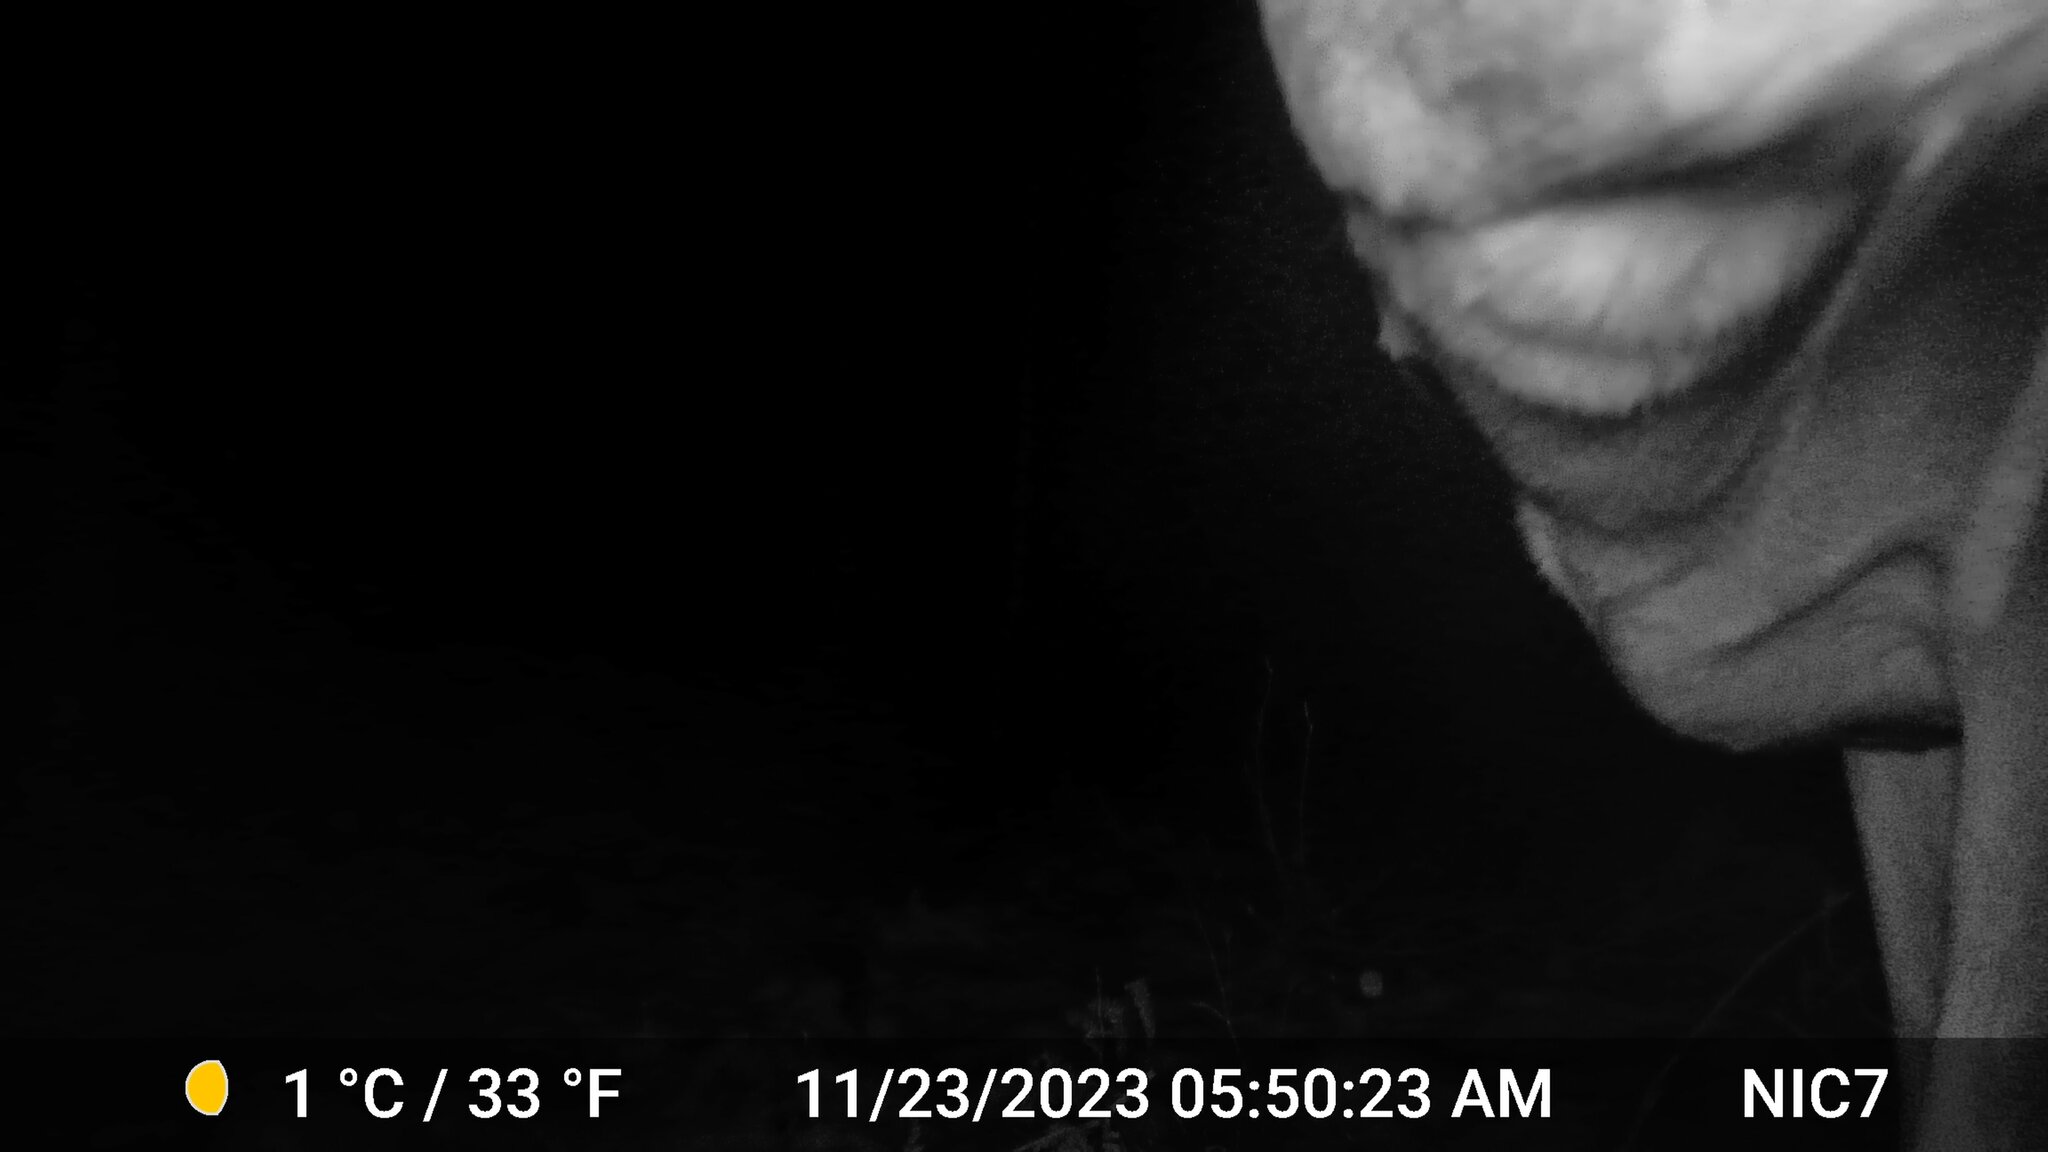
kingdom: Animalia
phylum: Chordata
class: Mammalia
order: Artiodactyla
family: Cervidae
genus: Odocoileus
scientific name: Odocoileus virginianus
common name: White-tailed deer
